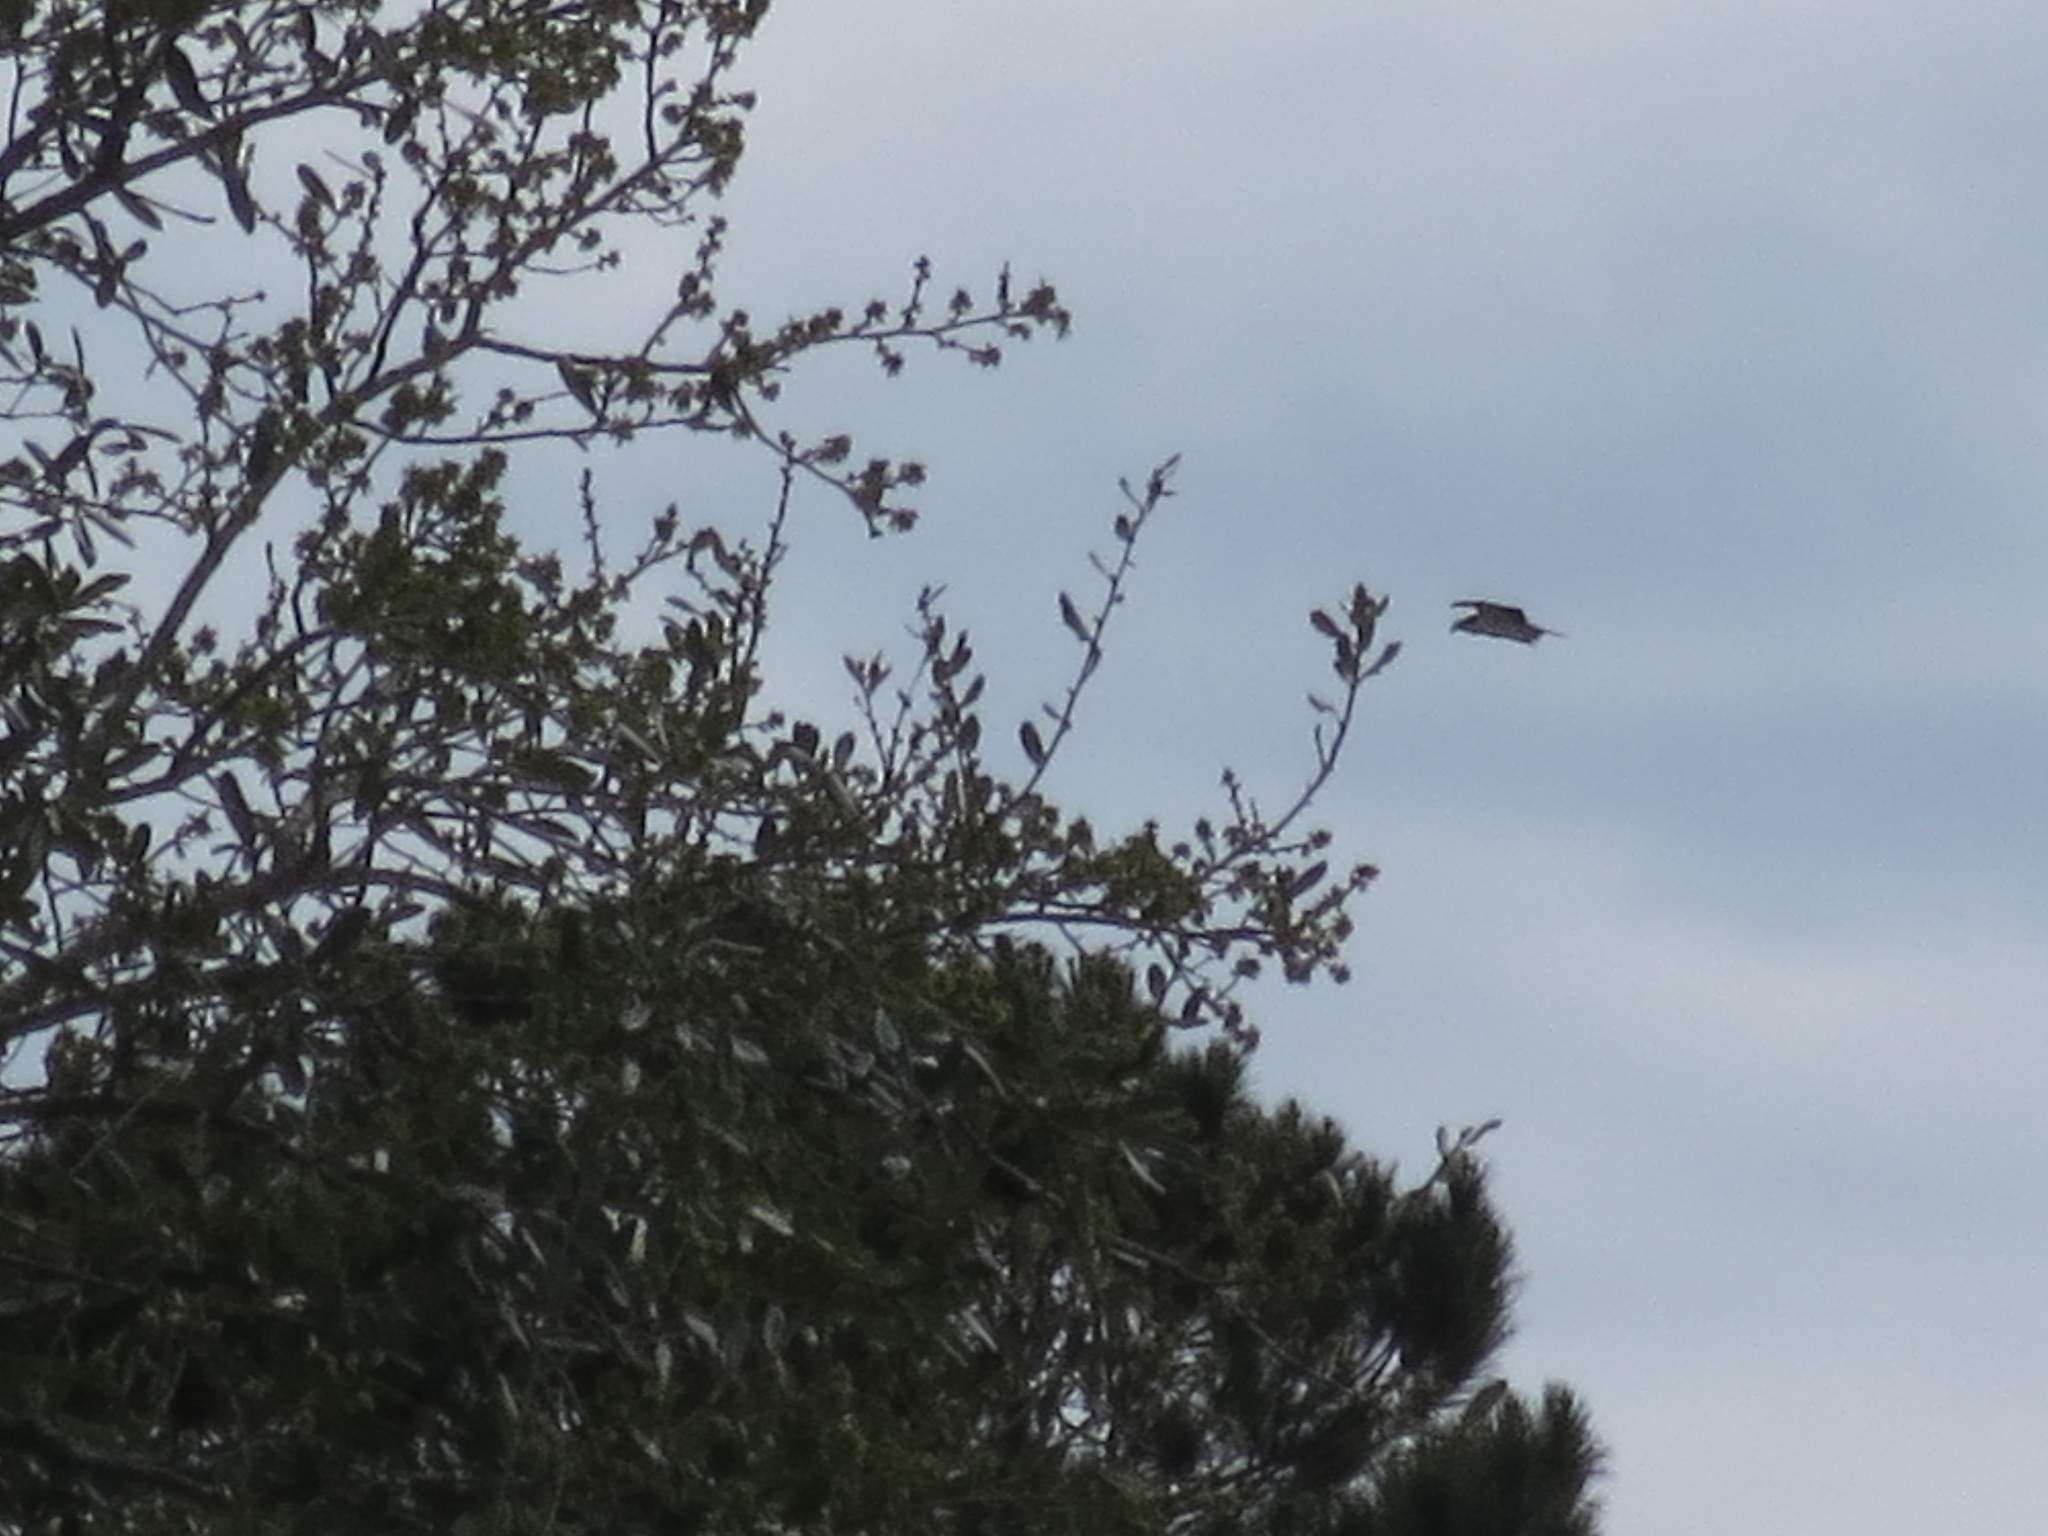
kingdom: Animalia
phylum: Chordata
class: Aves
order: Accipitriformes
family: Pandionidae
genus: Pandion
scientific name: Pandion haliaetus
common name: Osprey
